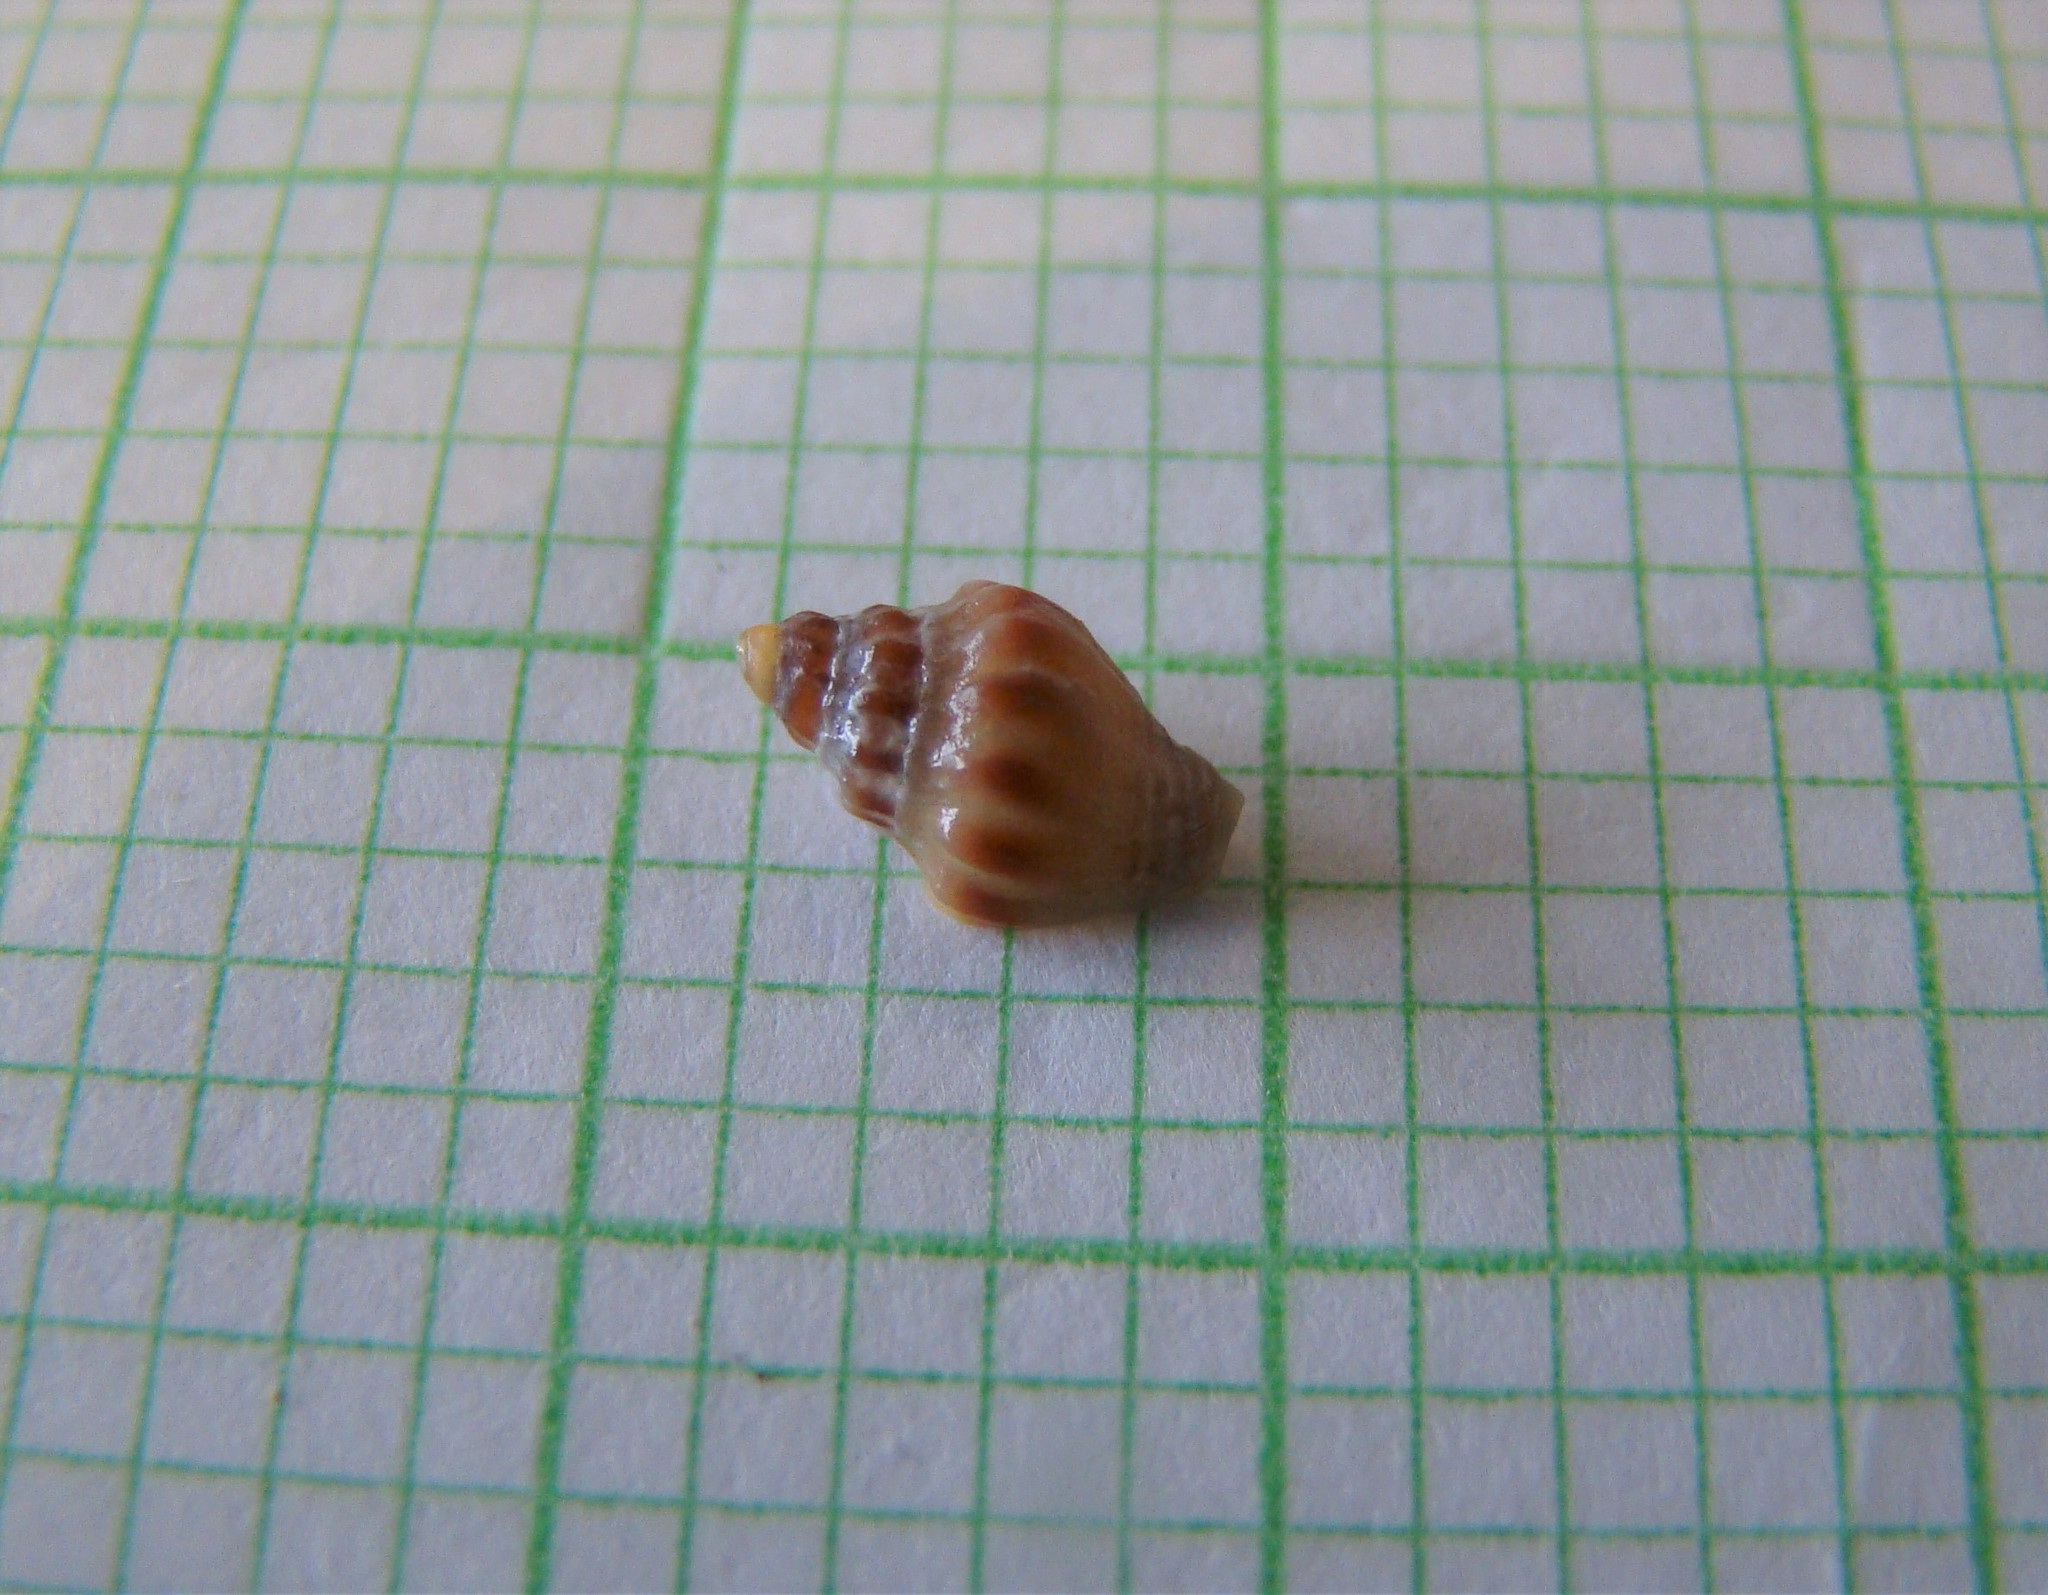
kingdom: Animalia
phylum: Mollusca
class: Gastropoda
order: Neogastropoda
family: Cominellidae
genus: Cominella
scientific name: Cominella glandiformis
